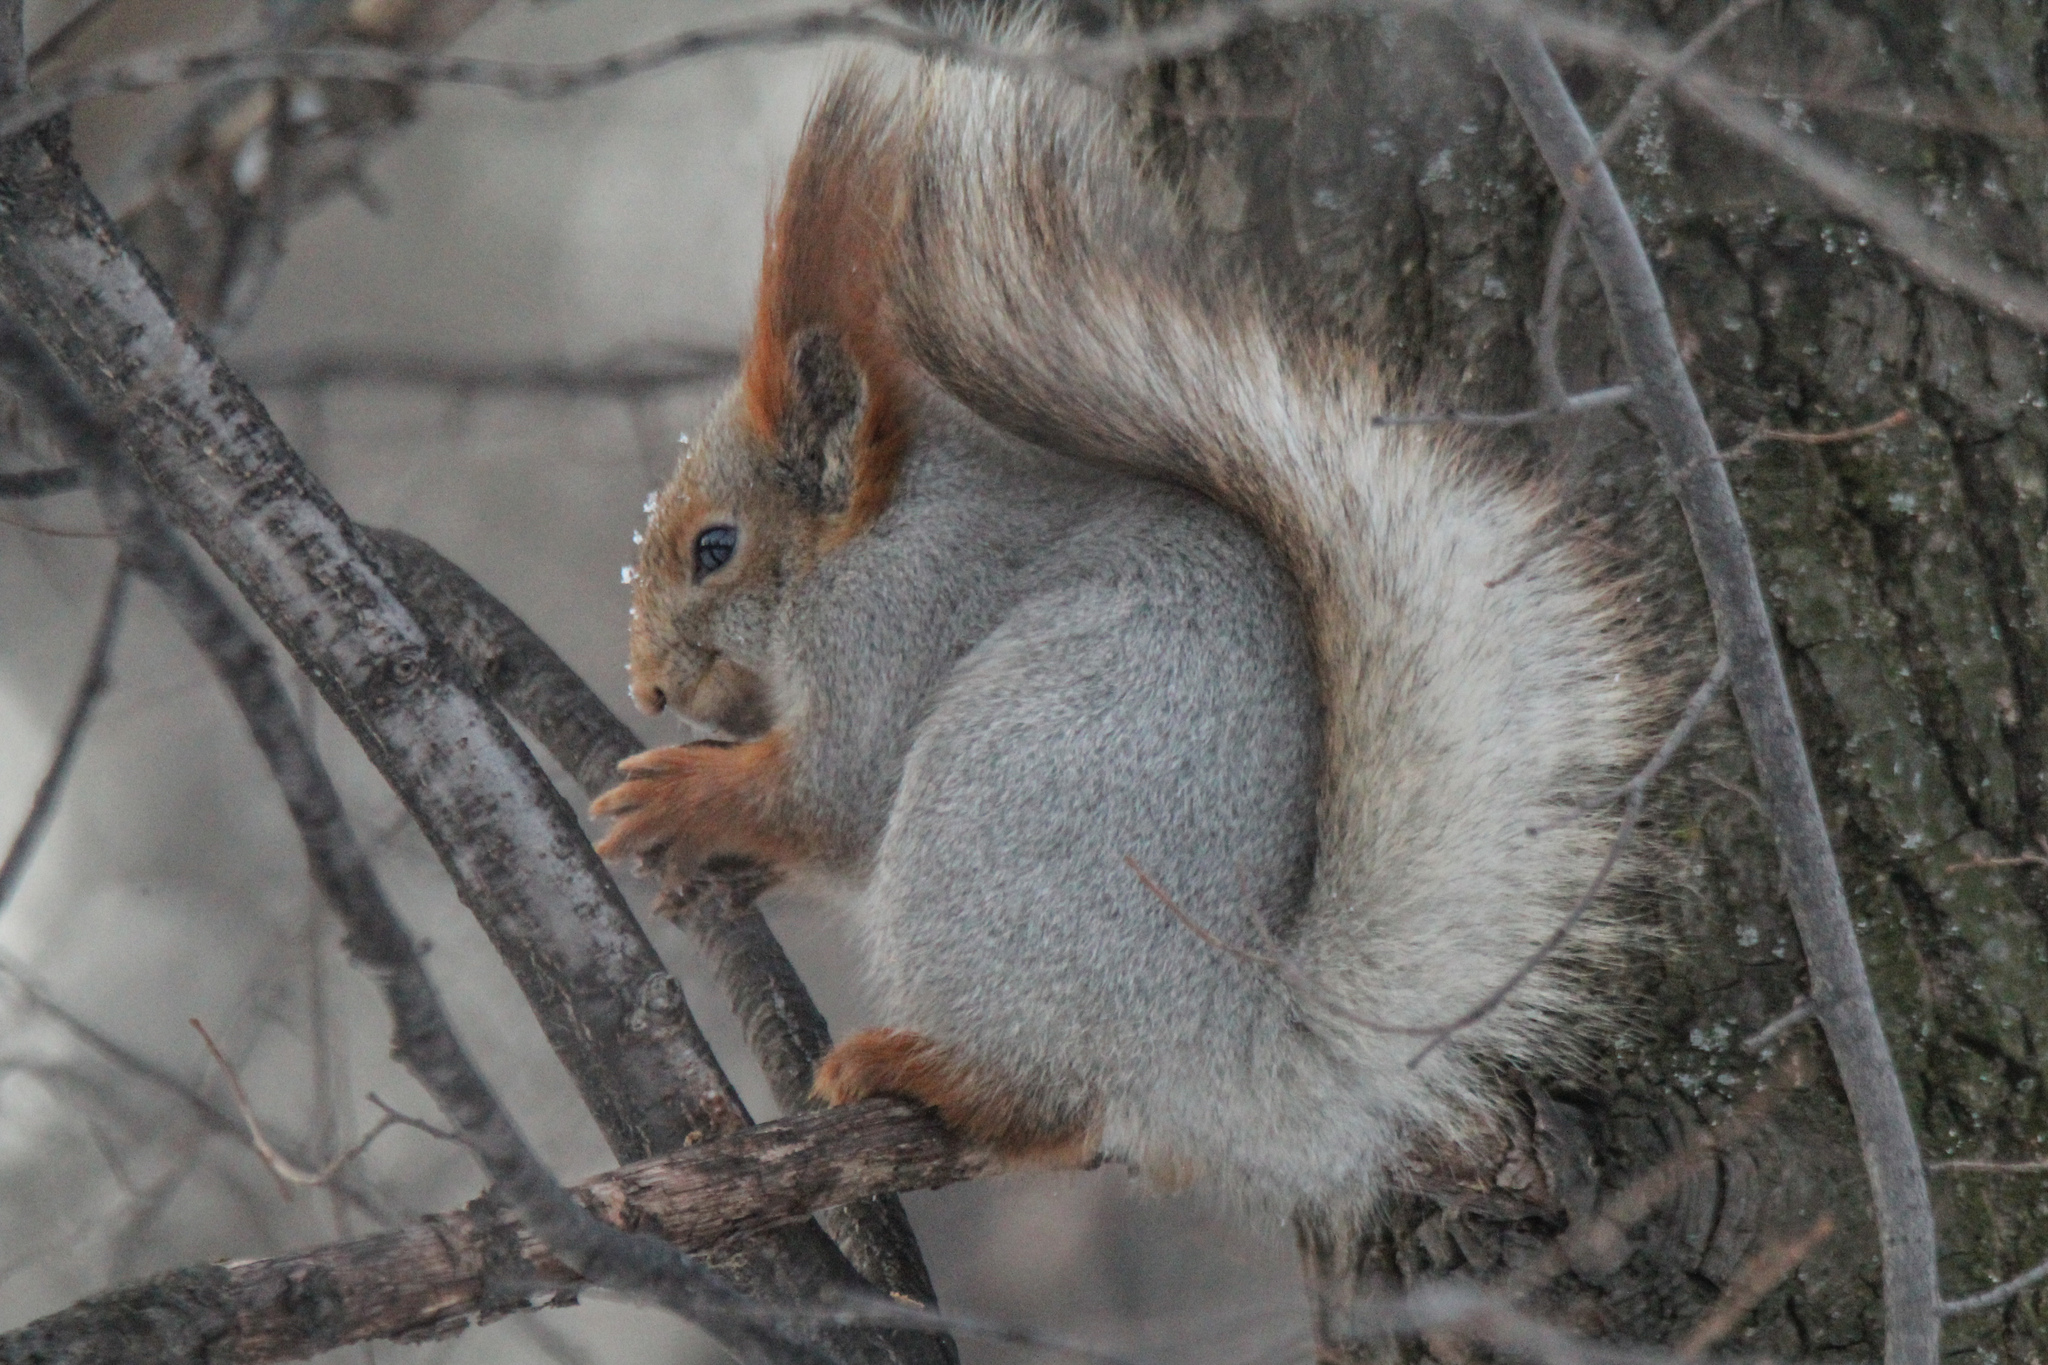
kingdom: Animalia
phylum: Chordata
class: Mammalia
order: Rodentia
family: Sciuridae
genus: Sciurus
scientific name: Sciurus vulgaris
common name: Eurasian red squirrel
